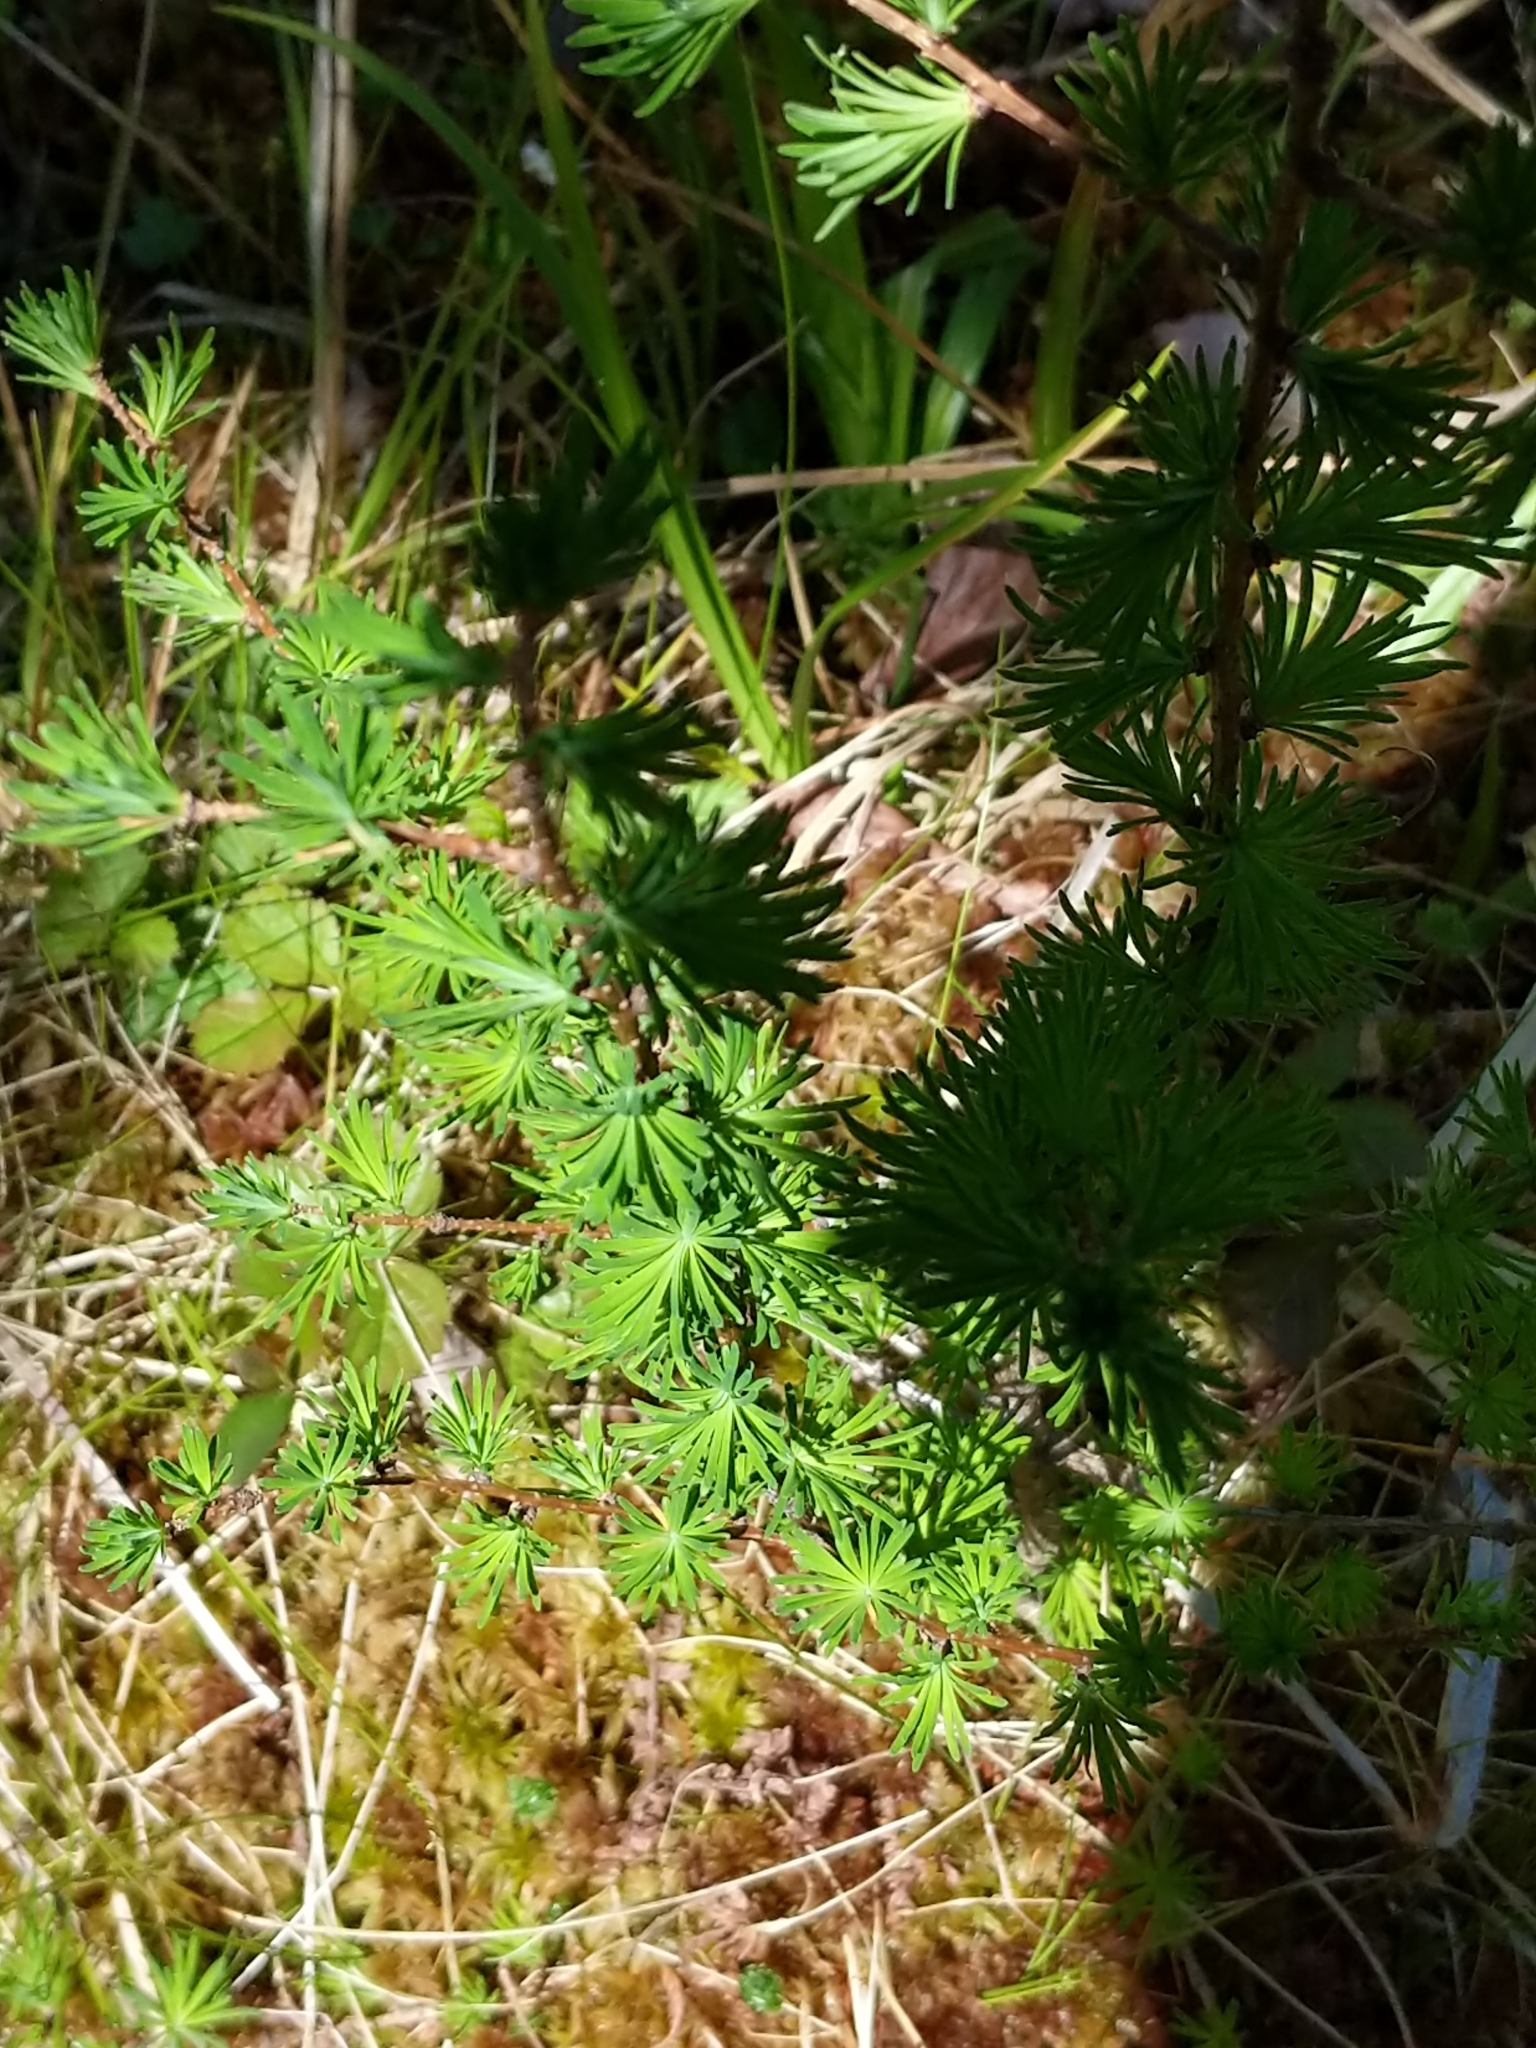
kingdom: Plantae
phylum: Tracheophyta
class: Pinopsida
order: Pinales
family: Pinaceae
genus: Larix
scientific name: Larix laricina
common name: American larch
